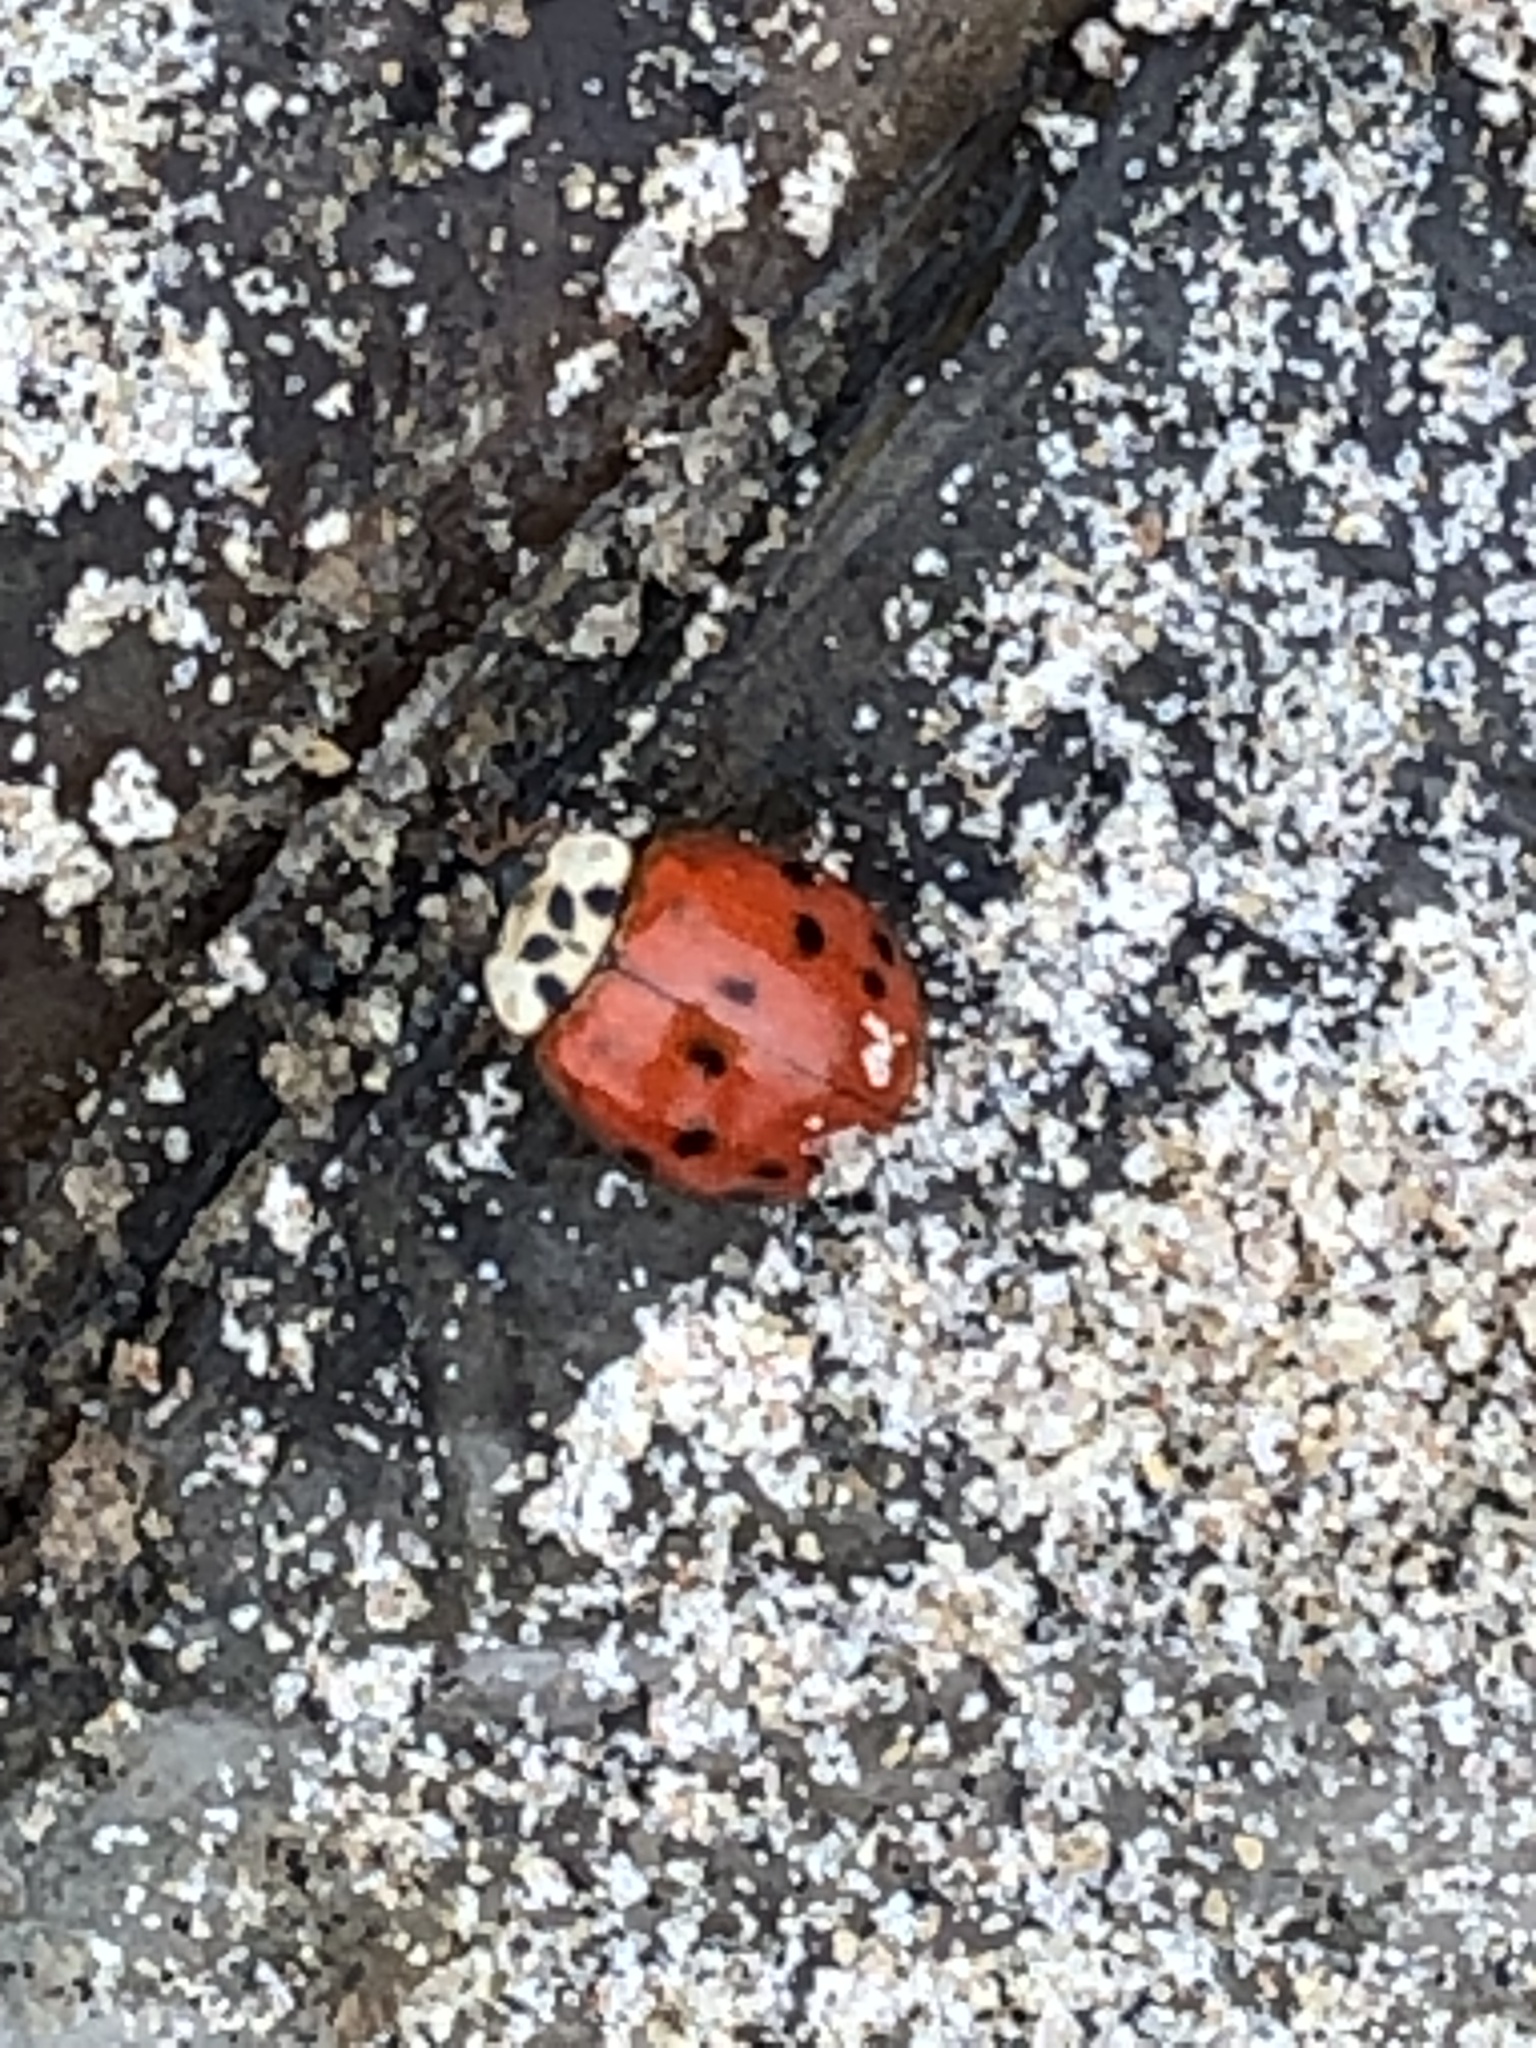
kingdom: Animalia
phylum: Arthropoda
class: Insecta
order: Coleoptera
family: Coccinellidae
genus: Harmonia
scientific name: Harmonia axyridis
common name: Harlequin ladybird
